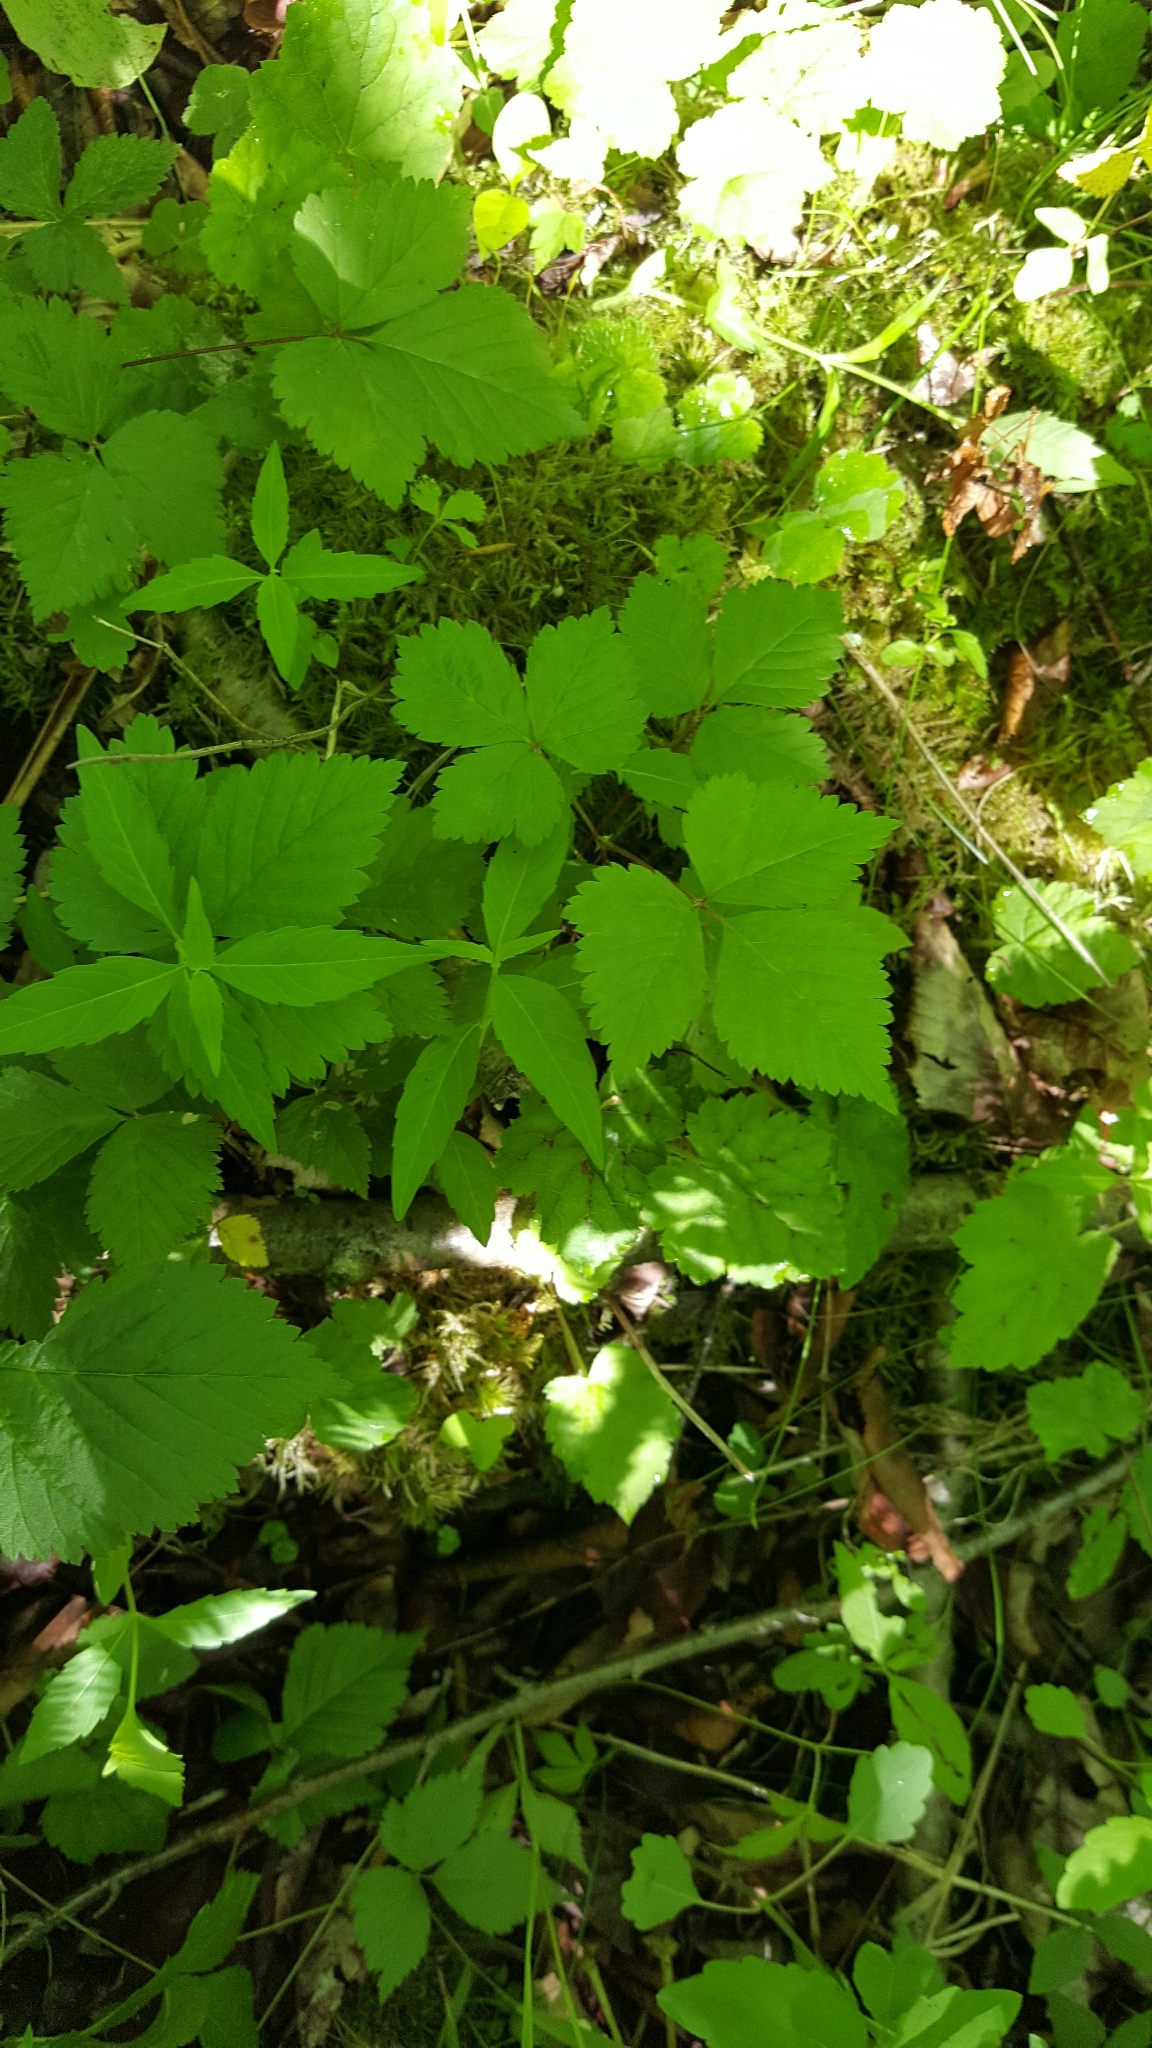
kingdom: Plantae
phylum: Tracheophyta
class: Magnoliopsida
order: Rosales
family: Rosaceae
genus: Rubus
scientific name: Rubus pubescens
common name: Dwarf raspberry
